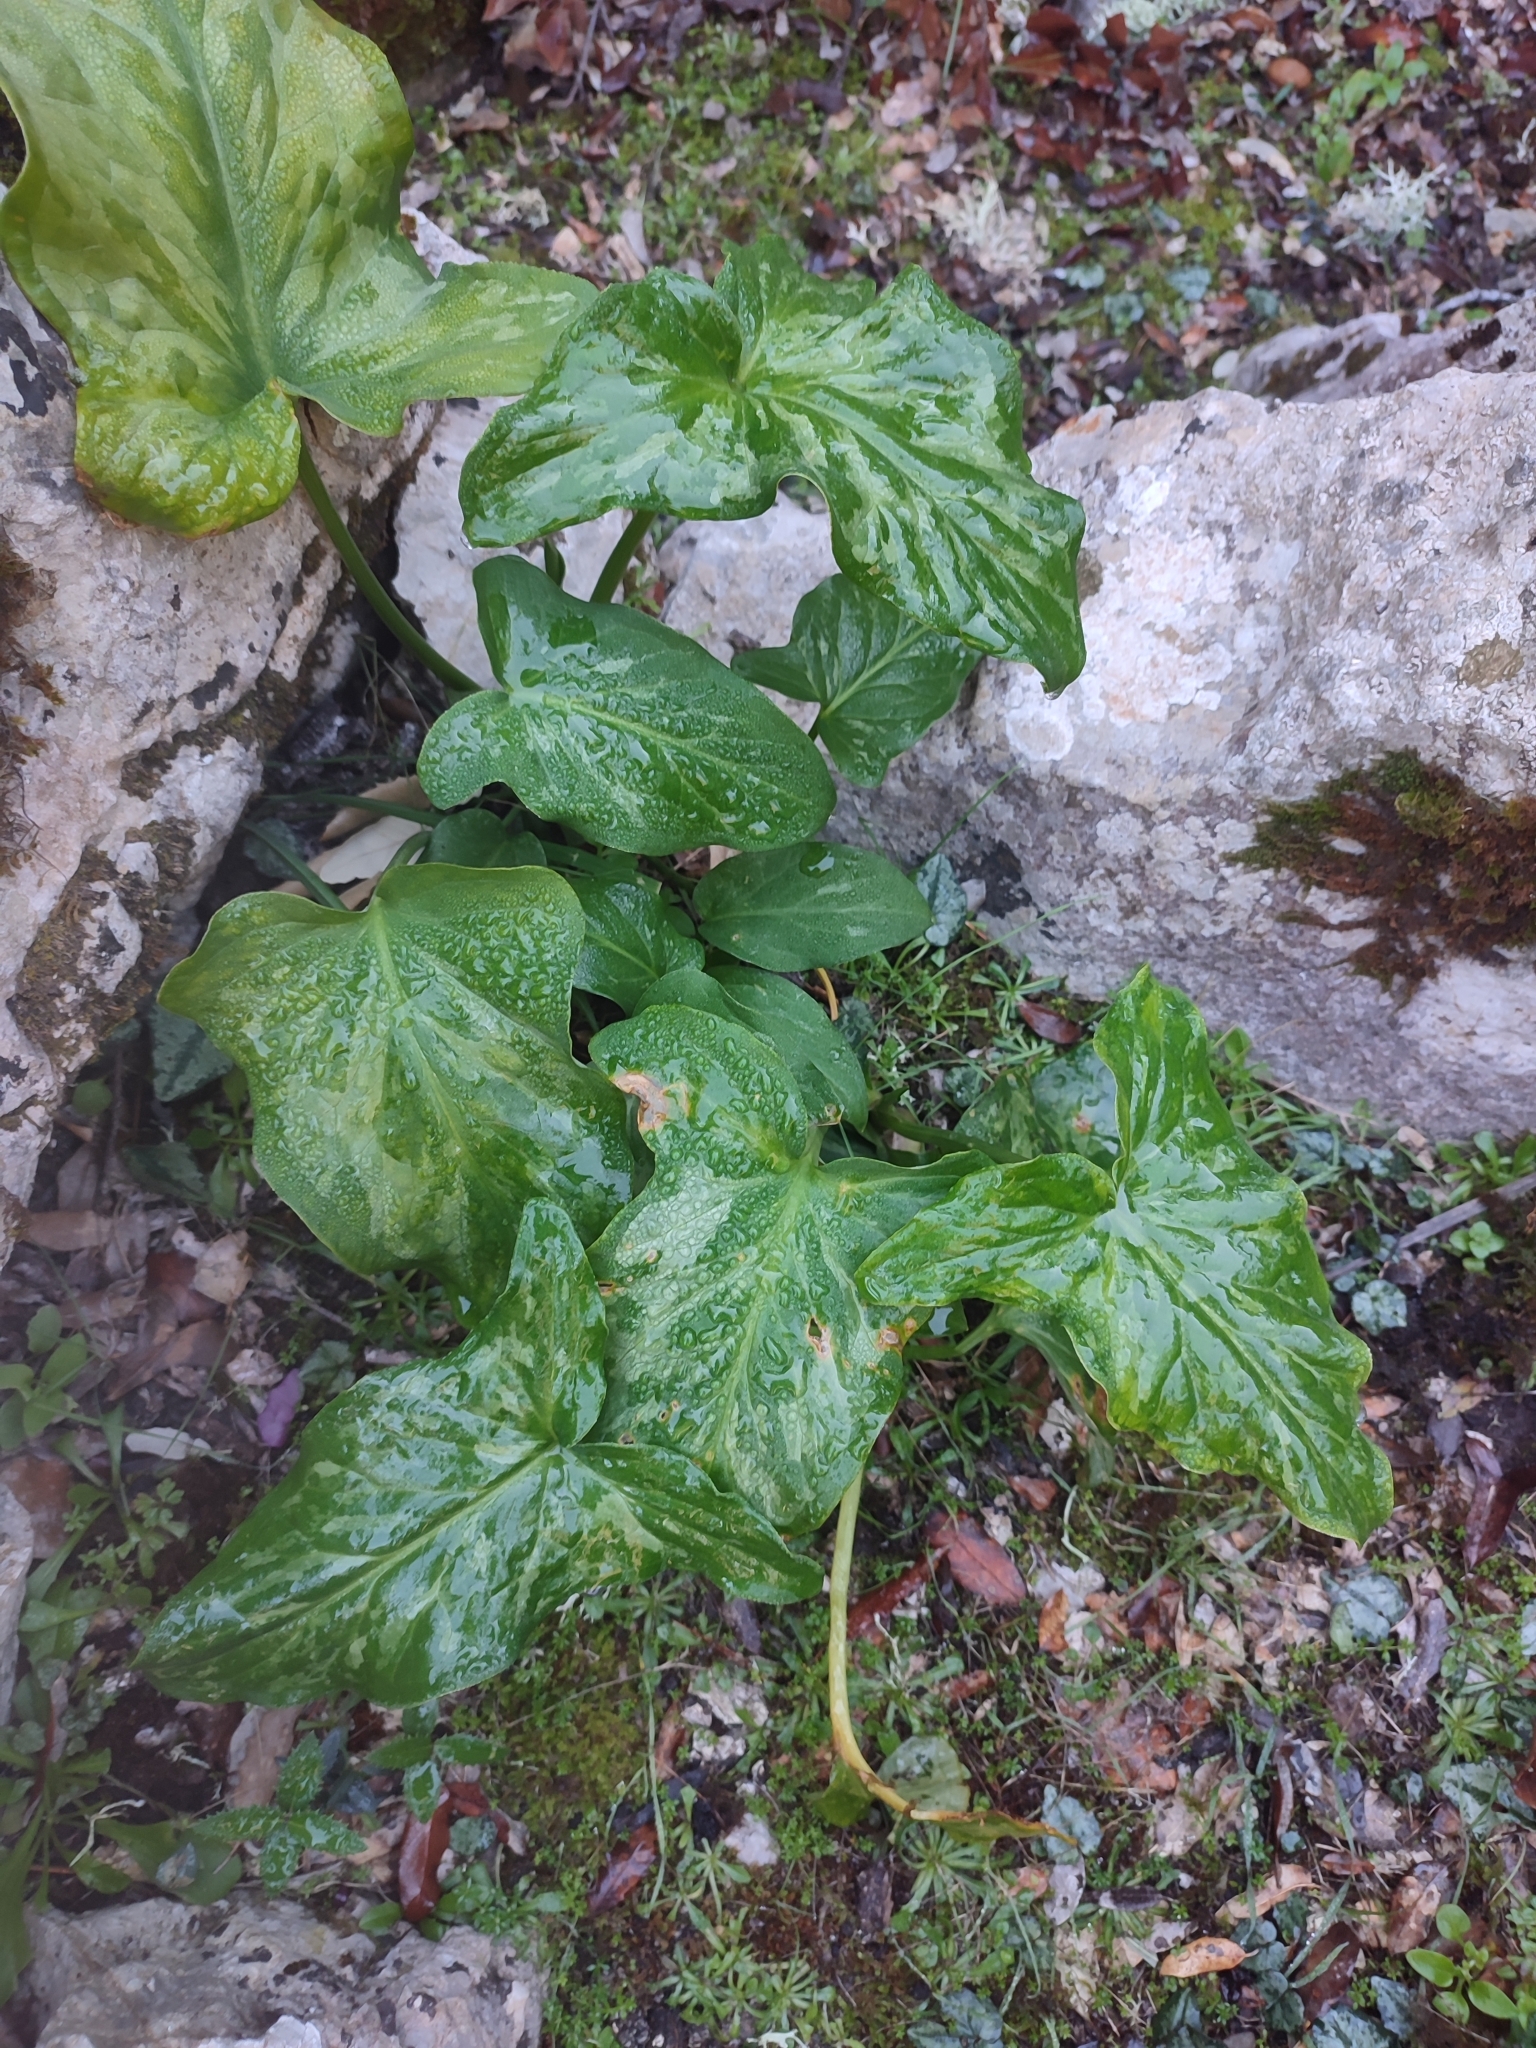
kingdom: Plantae
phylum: Tracheophyta
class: Liliopsida
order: Alismatales
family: Araceae
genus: Arum
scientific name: Arum italicum
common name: Italian lords-and-ladies
